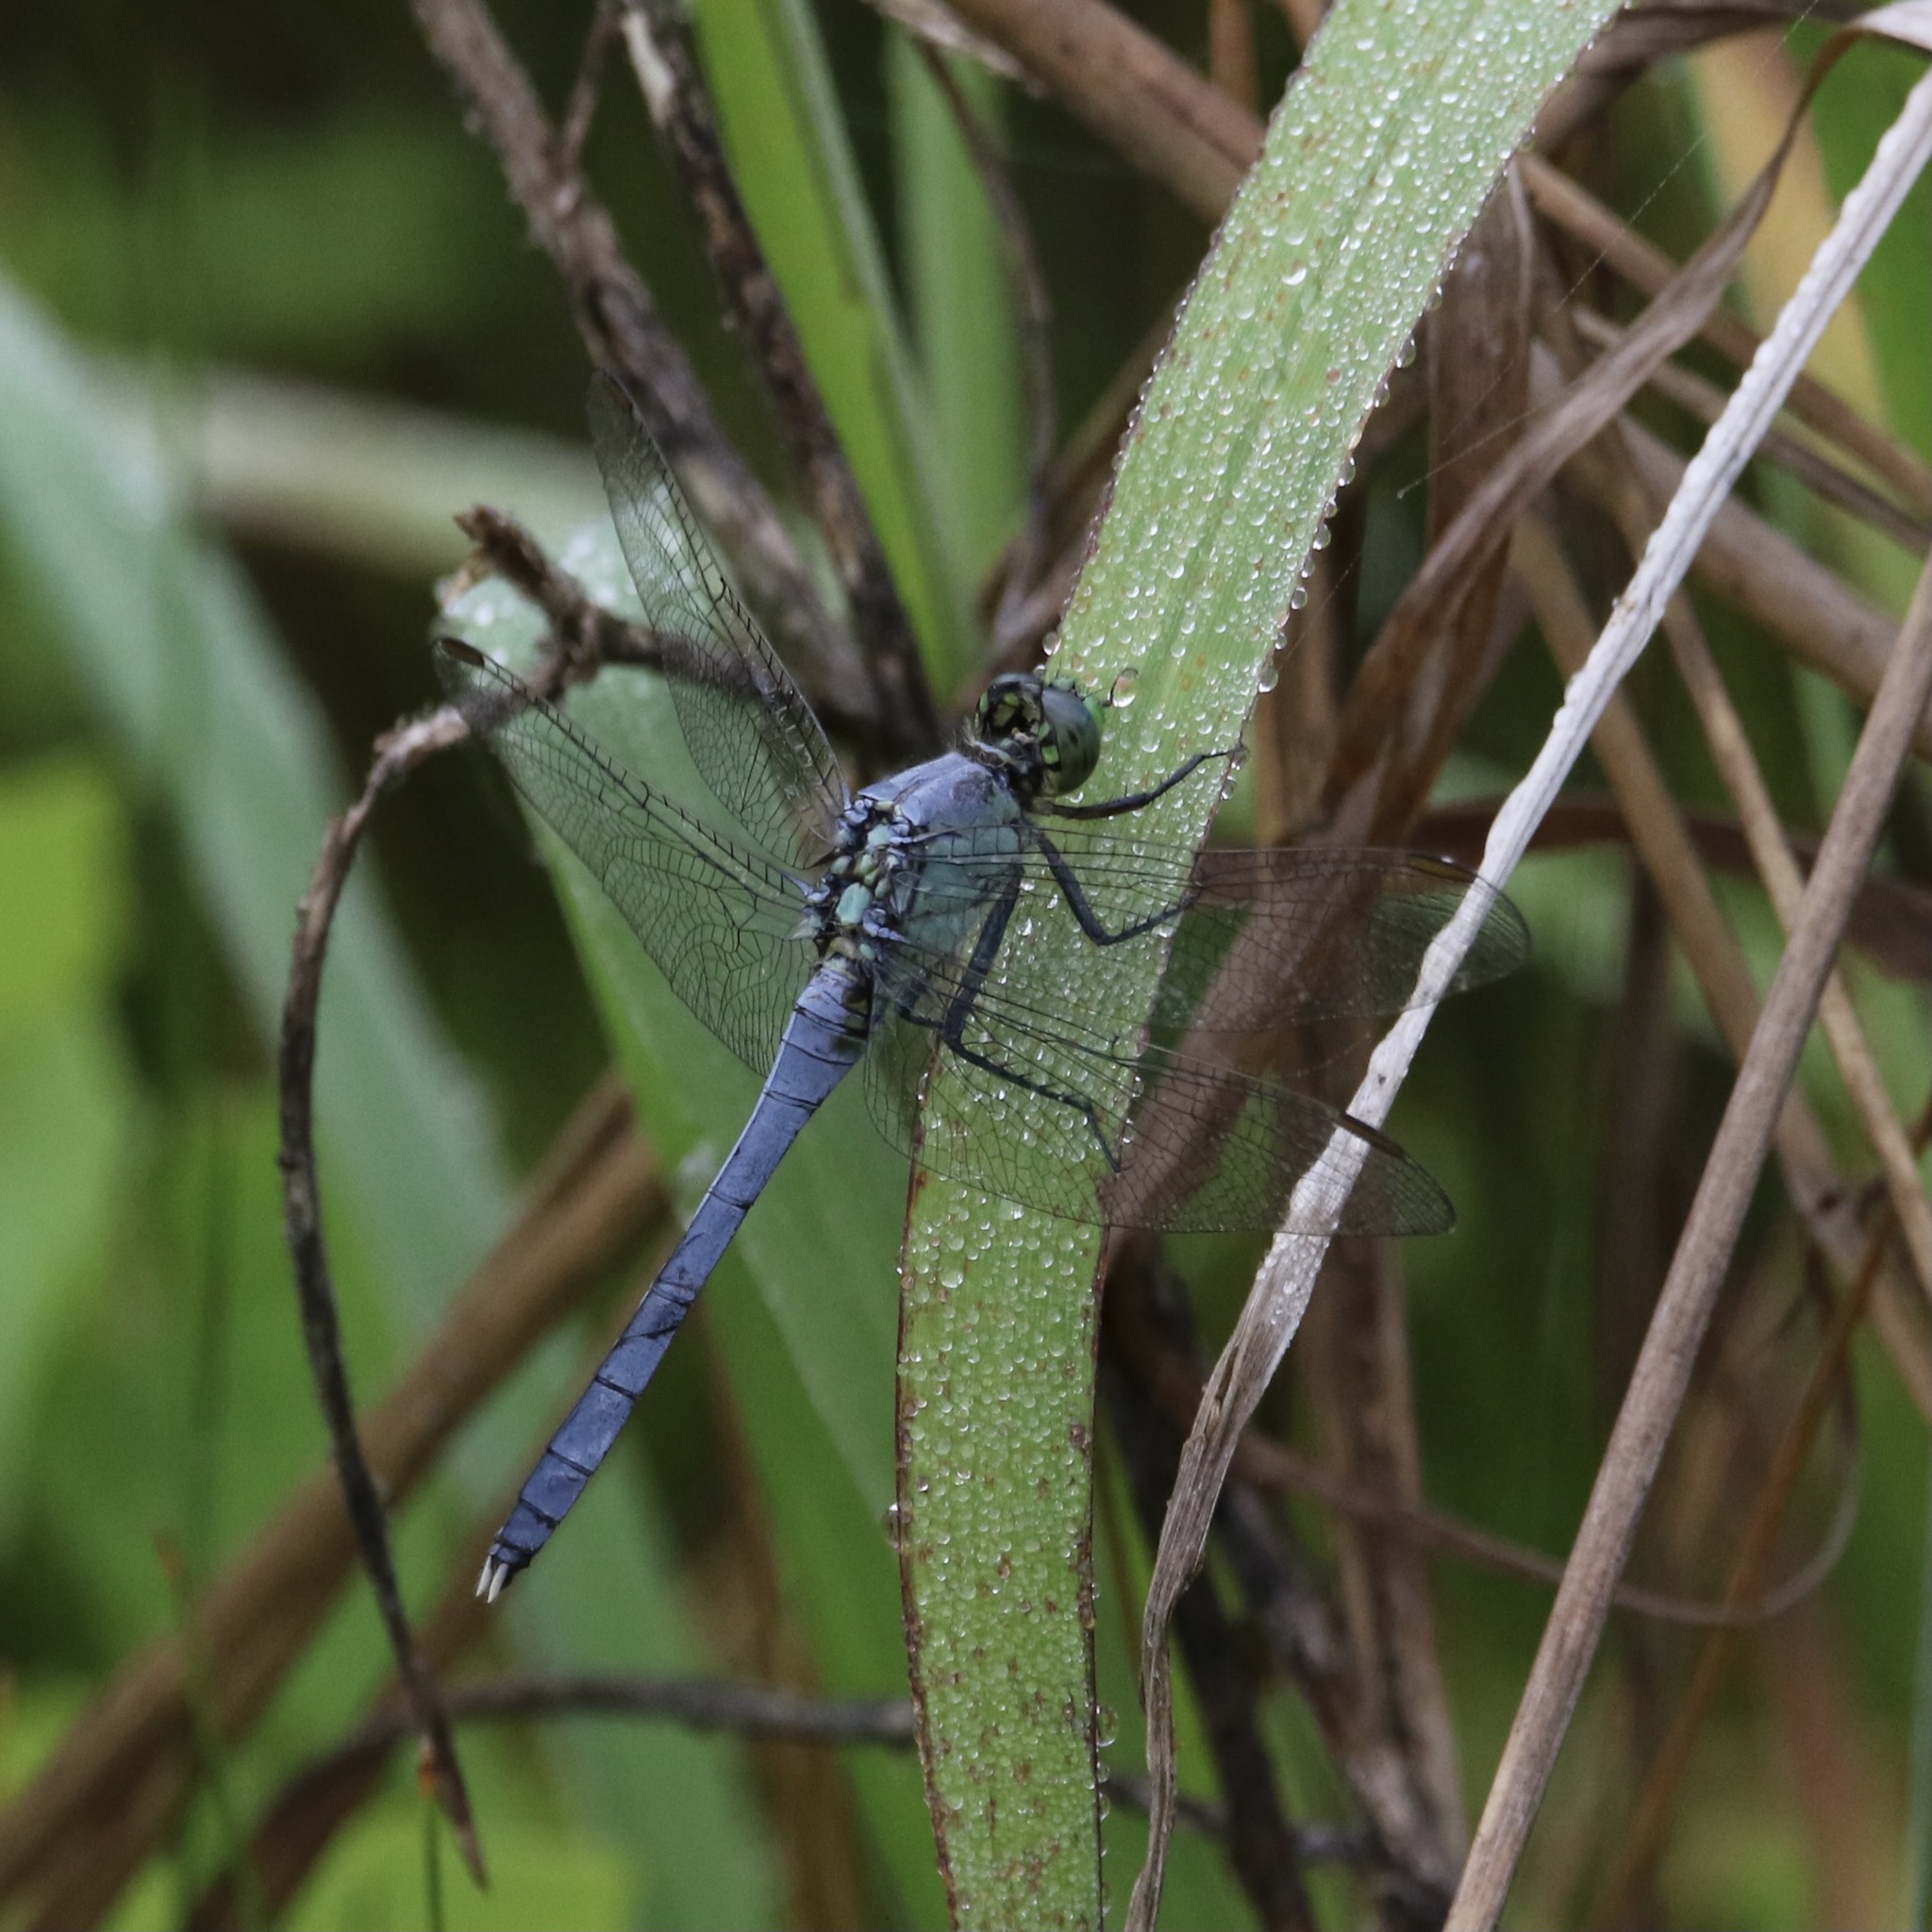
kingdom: Animalia
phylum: Arthropoda
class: Insecta
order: Odonata
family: Libellulidae
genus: Erythemis
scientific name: Erythemis simplicicollis
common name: Eastern pondhawk
